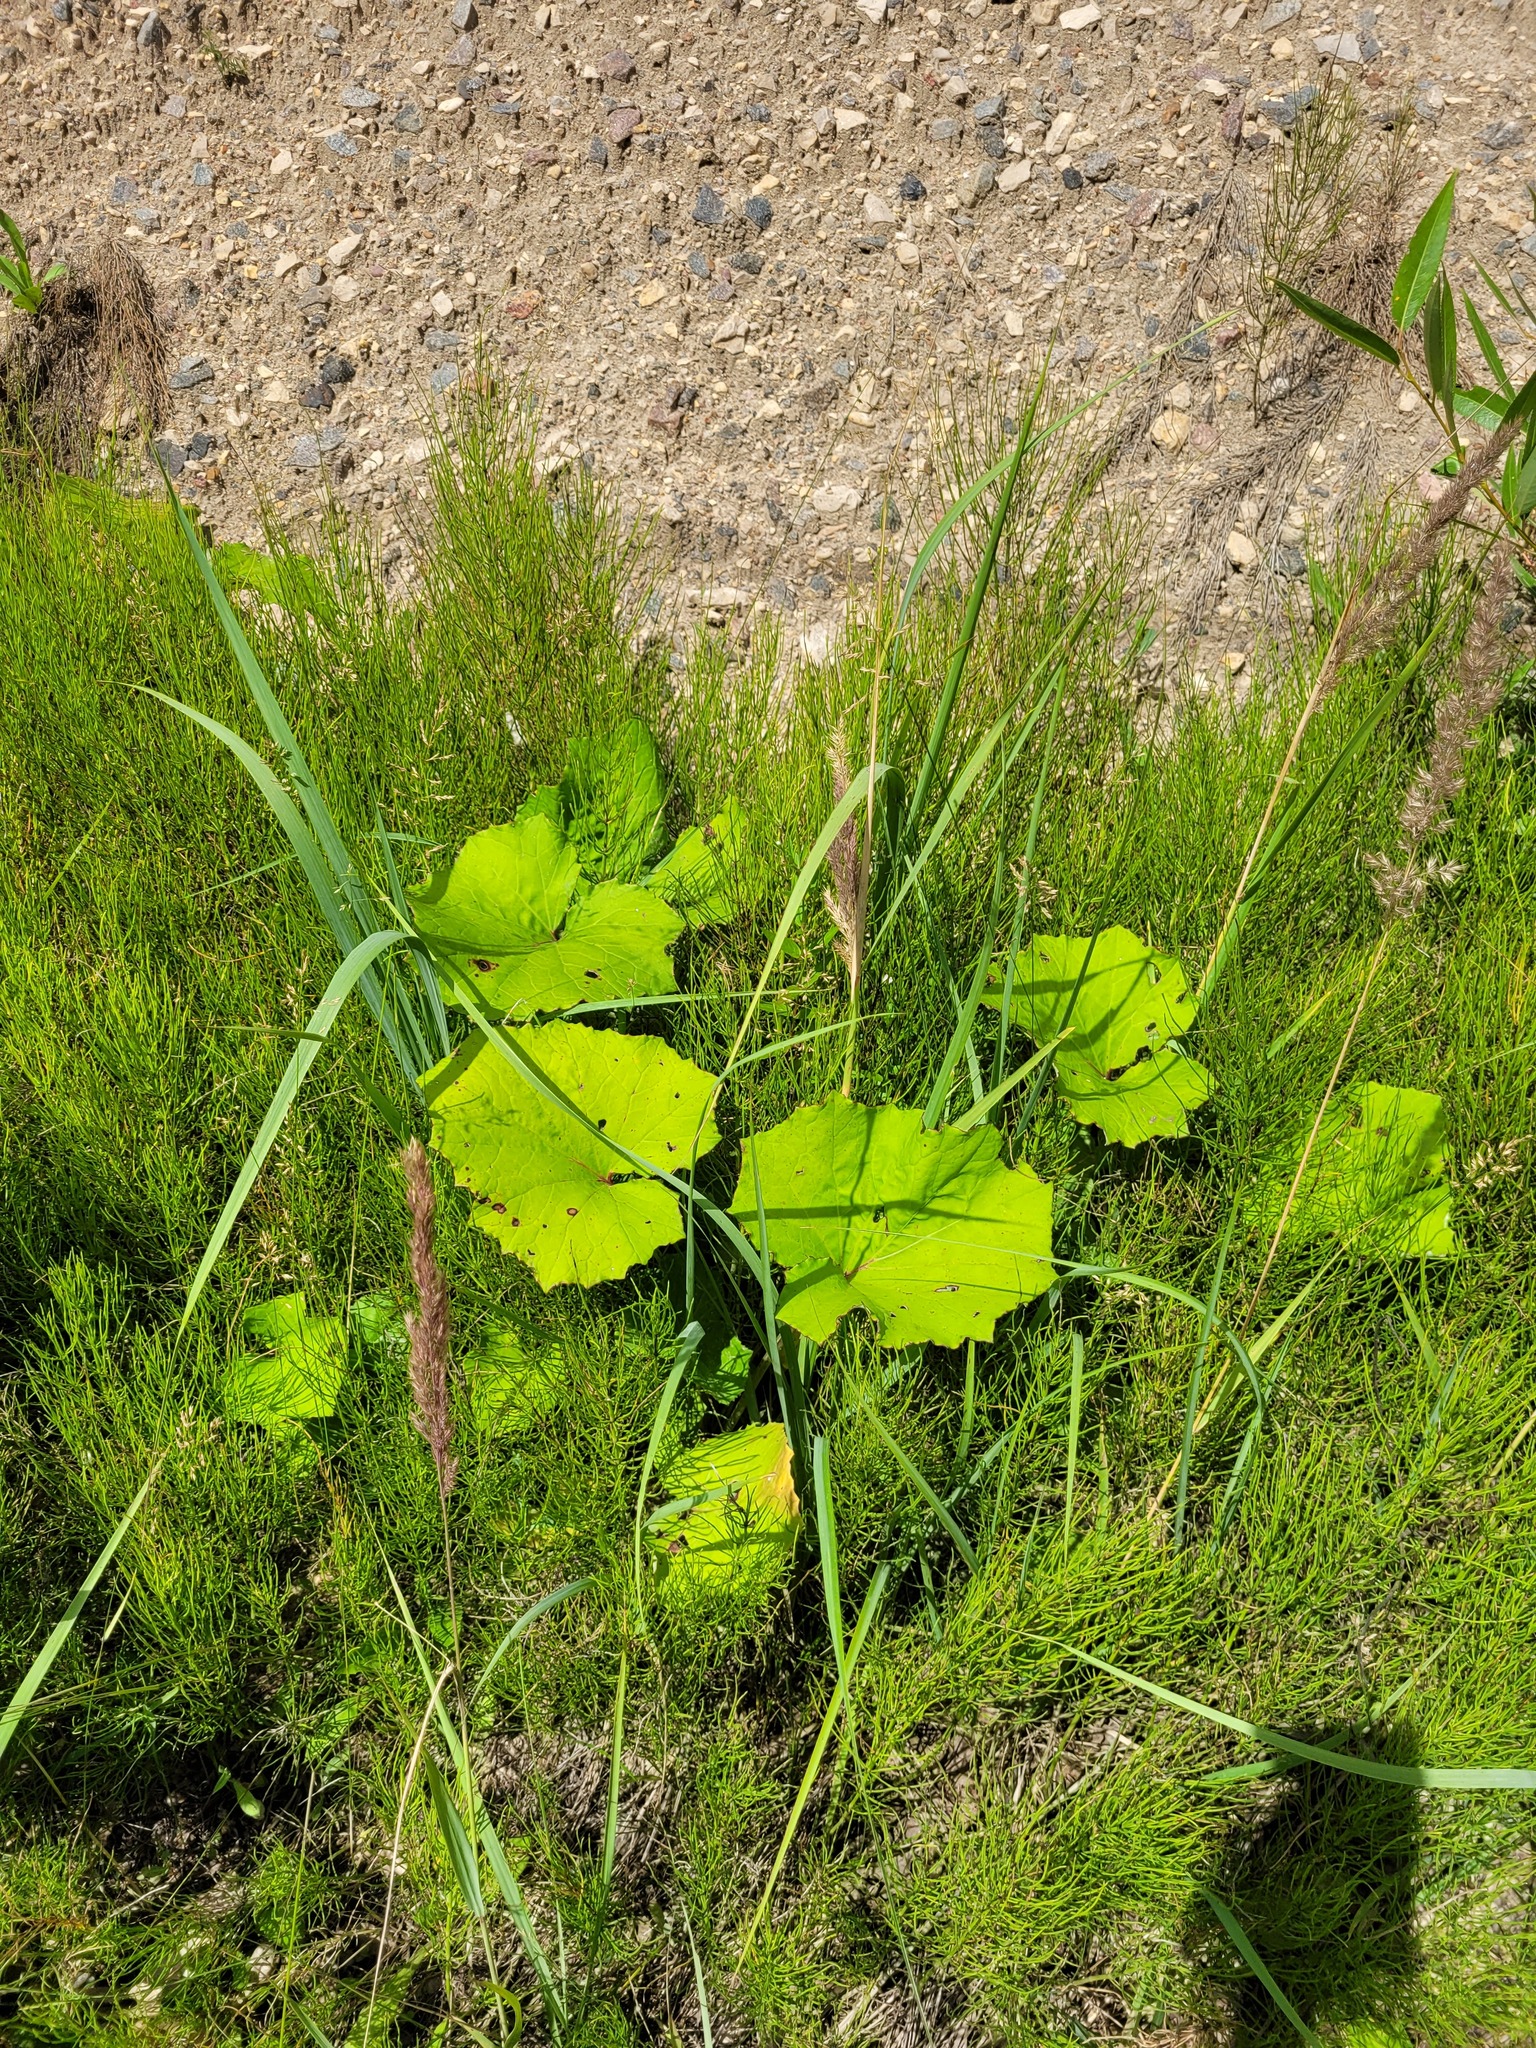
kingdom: Plantae
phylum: Tracheophyta
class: Polypodiopsida
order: Equisetales
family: Equisetaceae
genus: Equisetum
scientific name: Equisetum arvense
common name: Field horsetail
